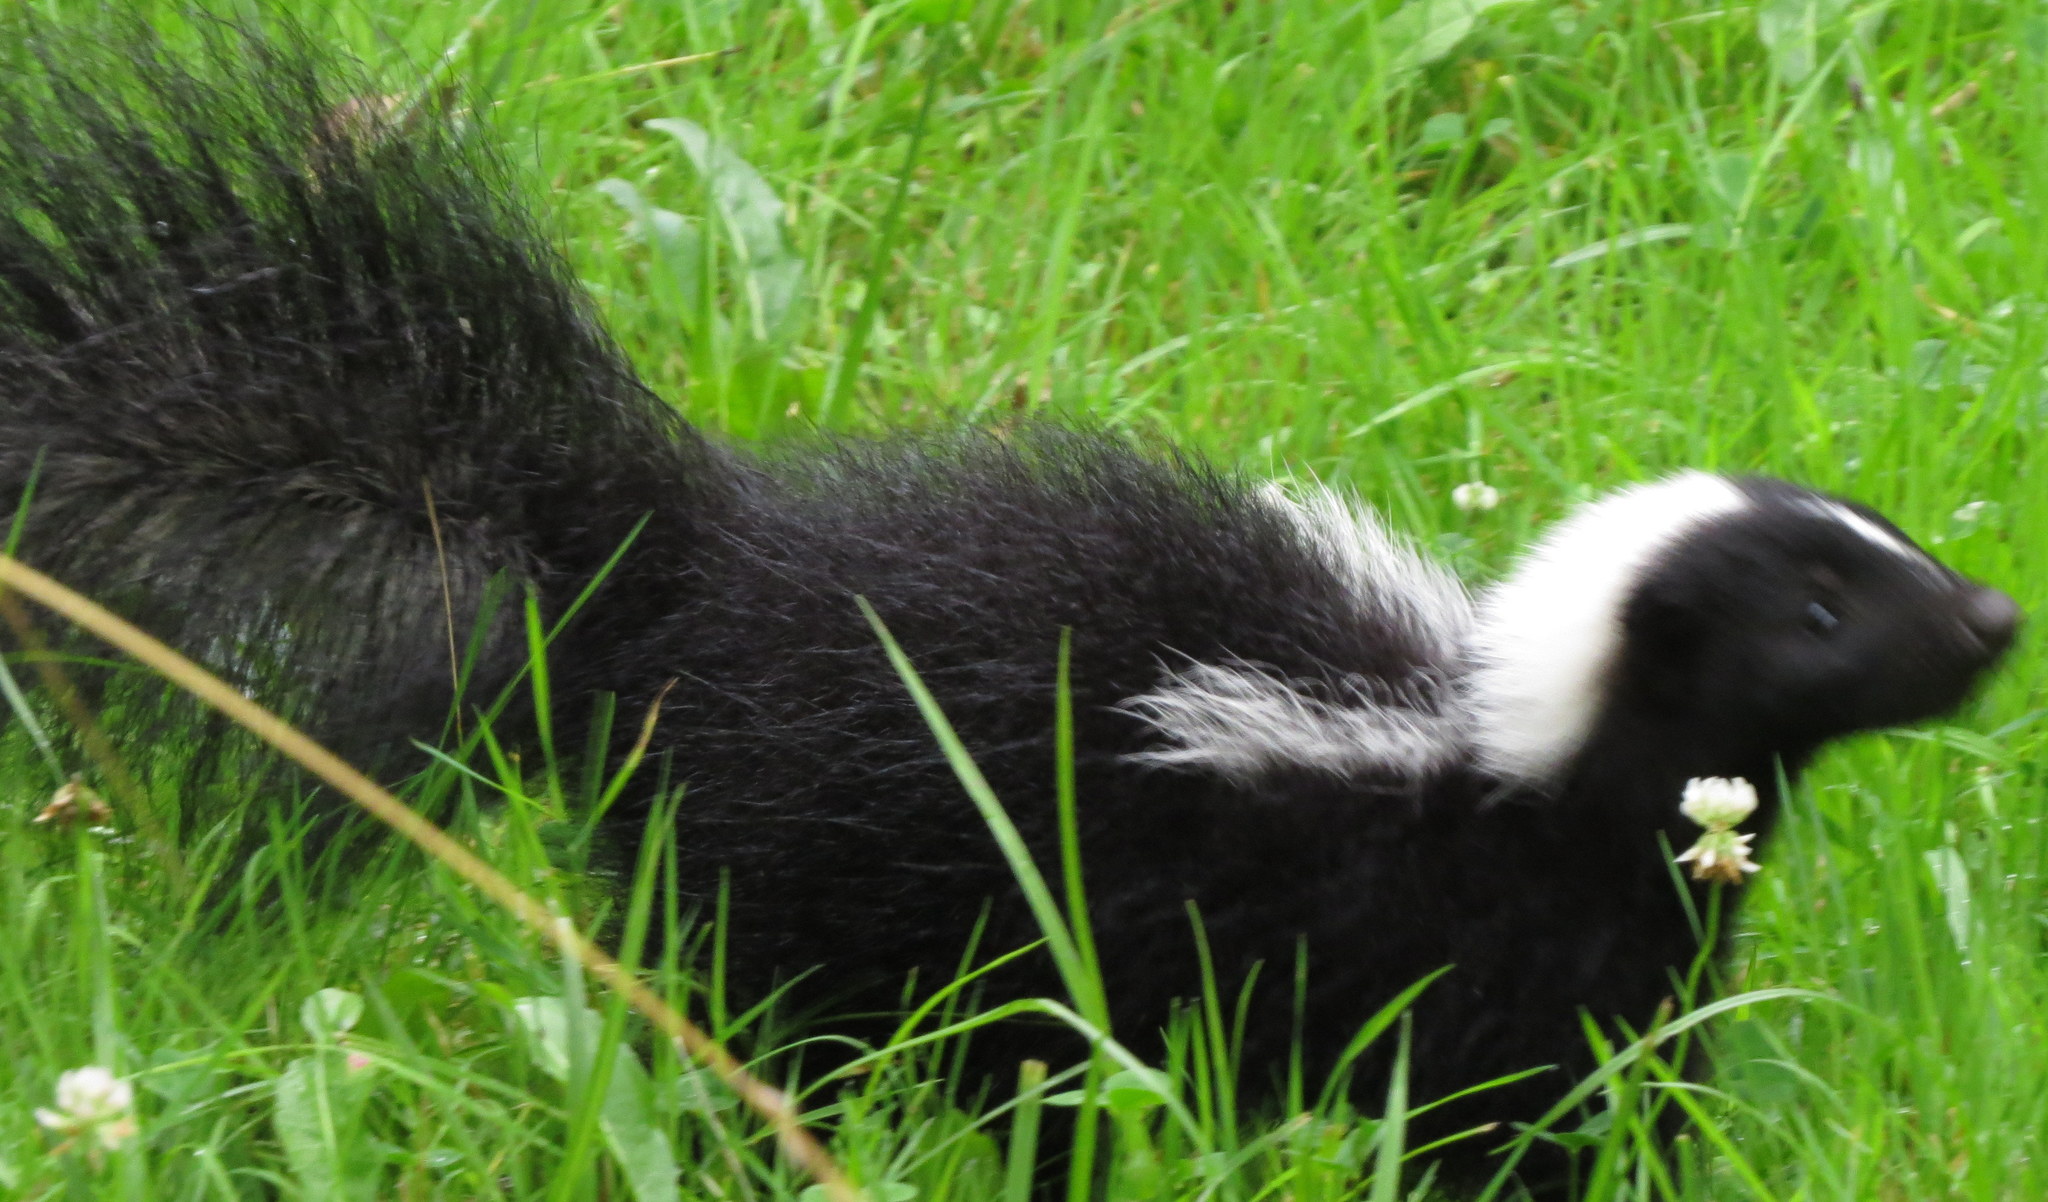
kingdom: Animalia
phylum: Chordata
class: Mammalia
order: Carnivora
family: Mephitidae
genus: Mephitis
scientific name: Mephitis mephitis
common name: Striped skunk
